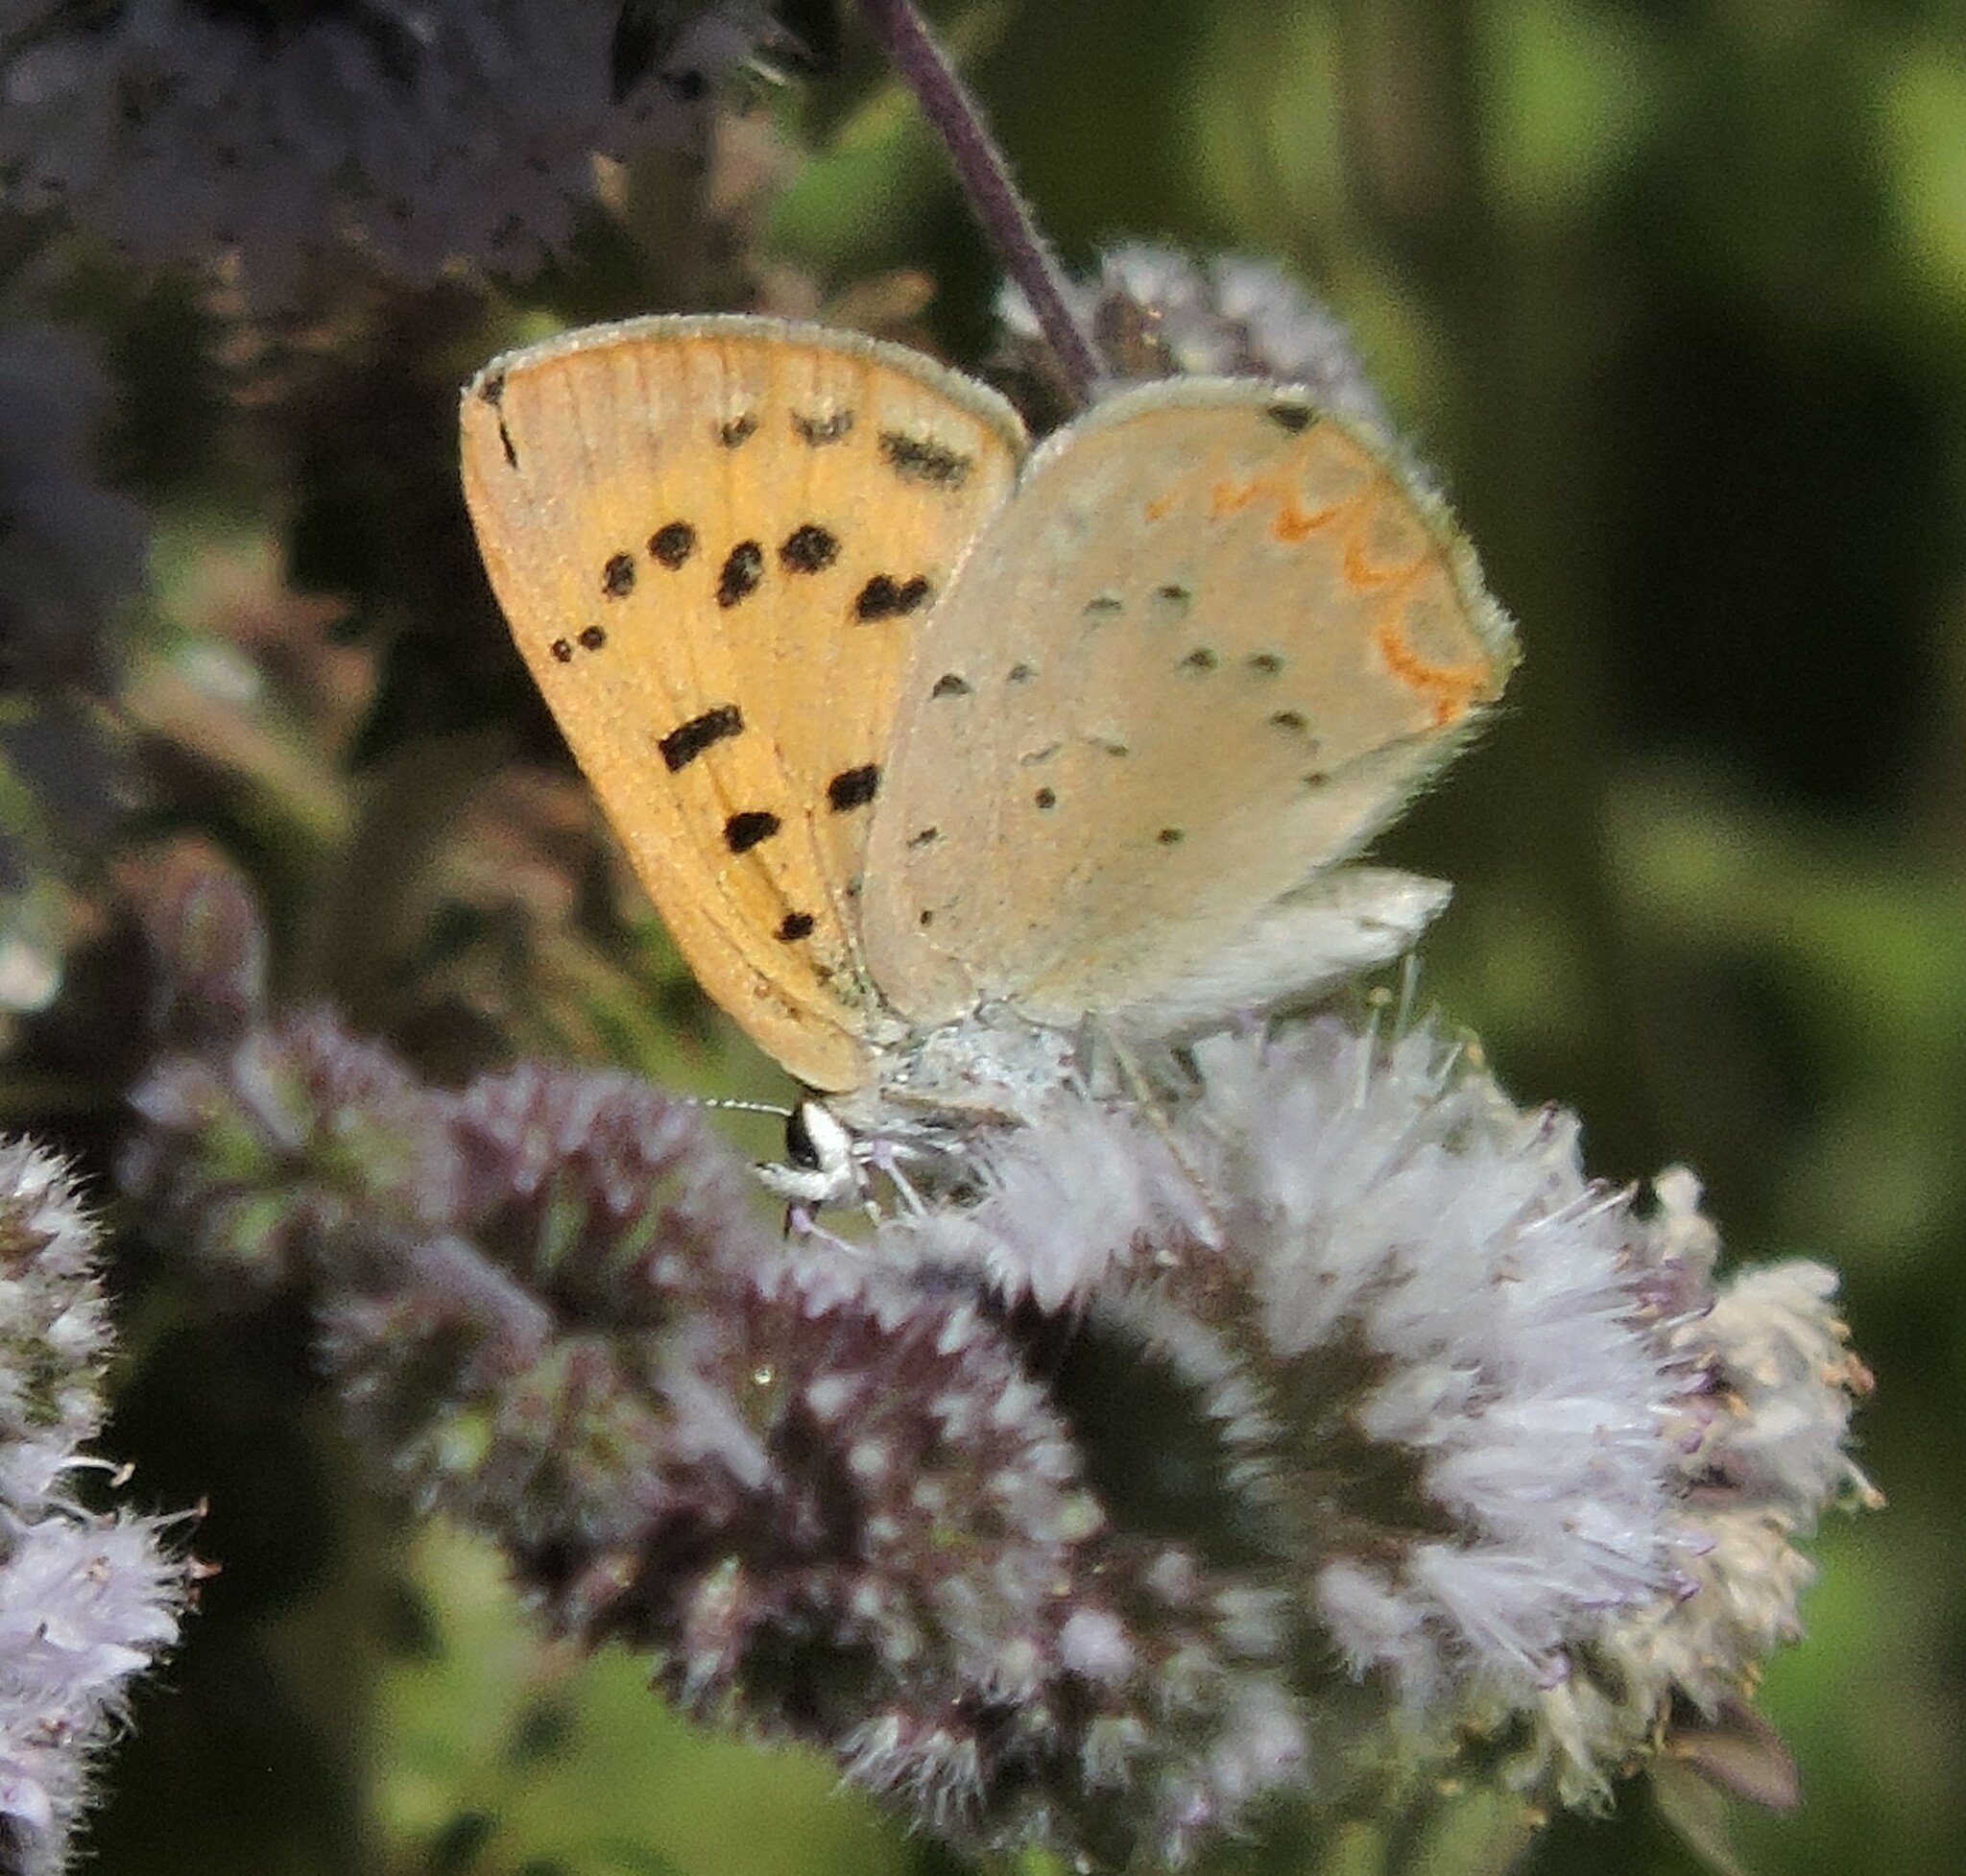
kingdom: Animalia
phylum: Arthropoda
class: Insecta
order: Lepidoptera
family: Lycaenidae
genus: Tharsalea
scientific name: Tharsalea helloides
